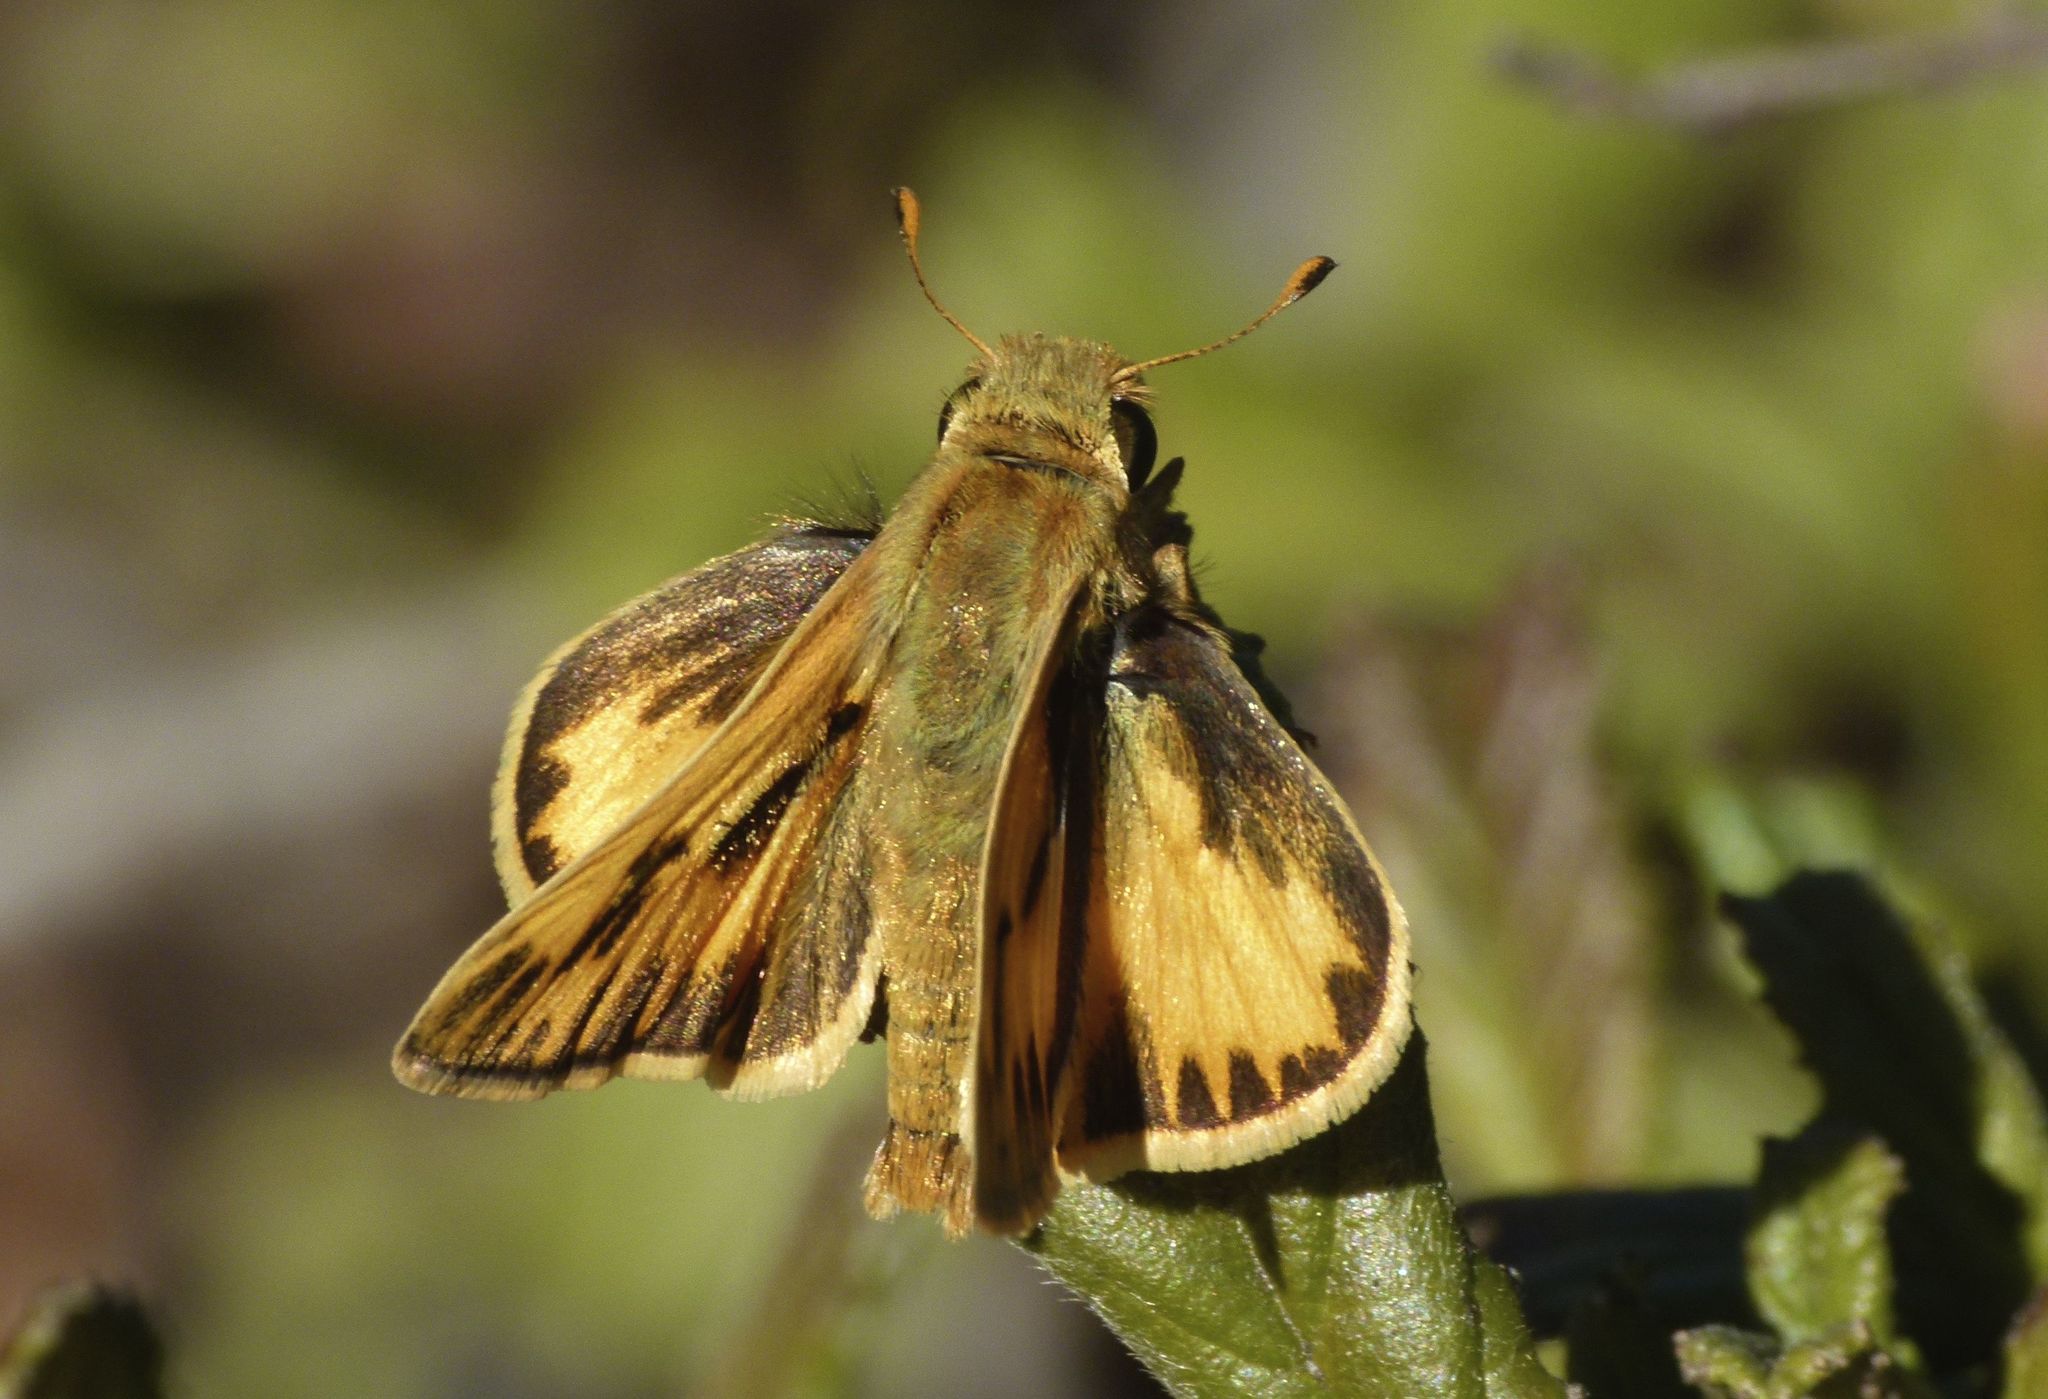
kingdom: Animalia
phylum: Arthropoda
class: Insecta
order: Lepidoptera
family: Hesperiidae
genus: Hylephila
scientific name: Hylephila phyleus
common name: Fiery skipper
